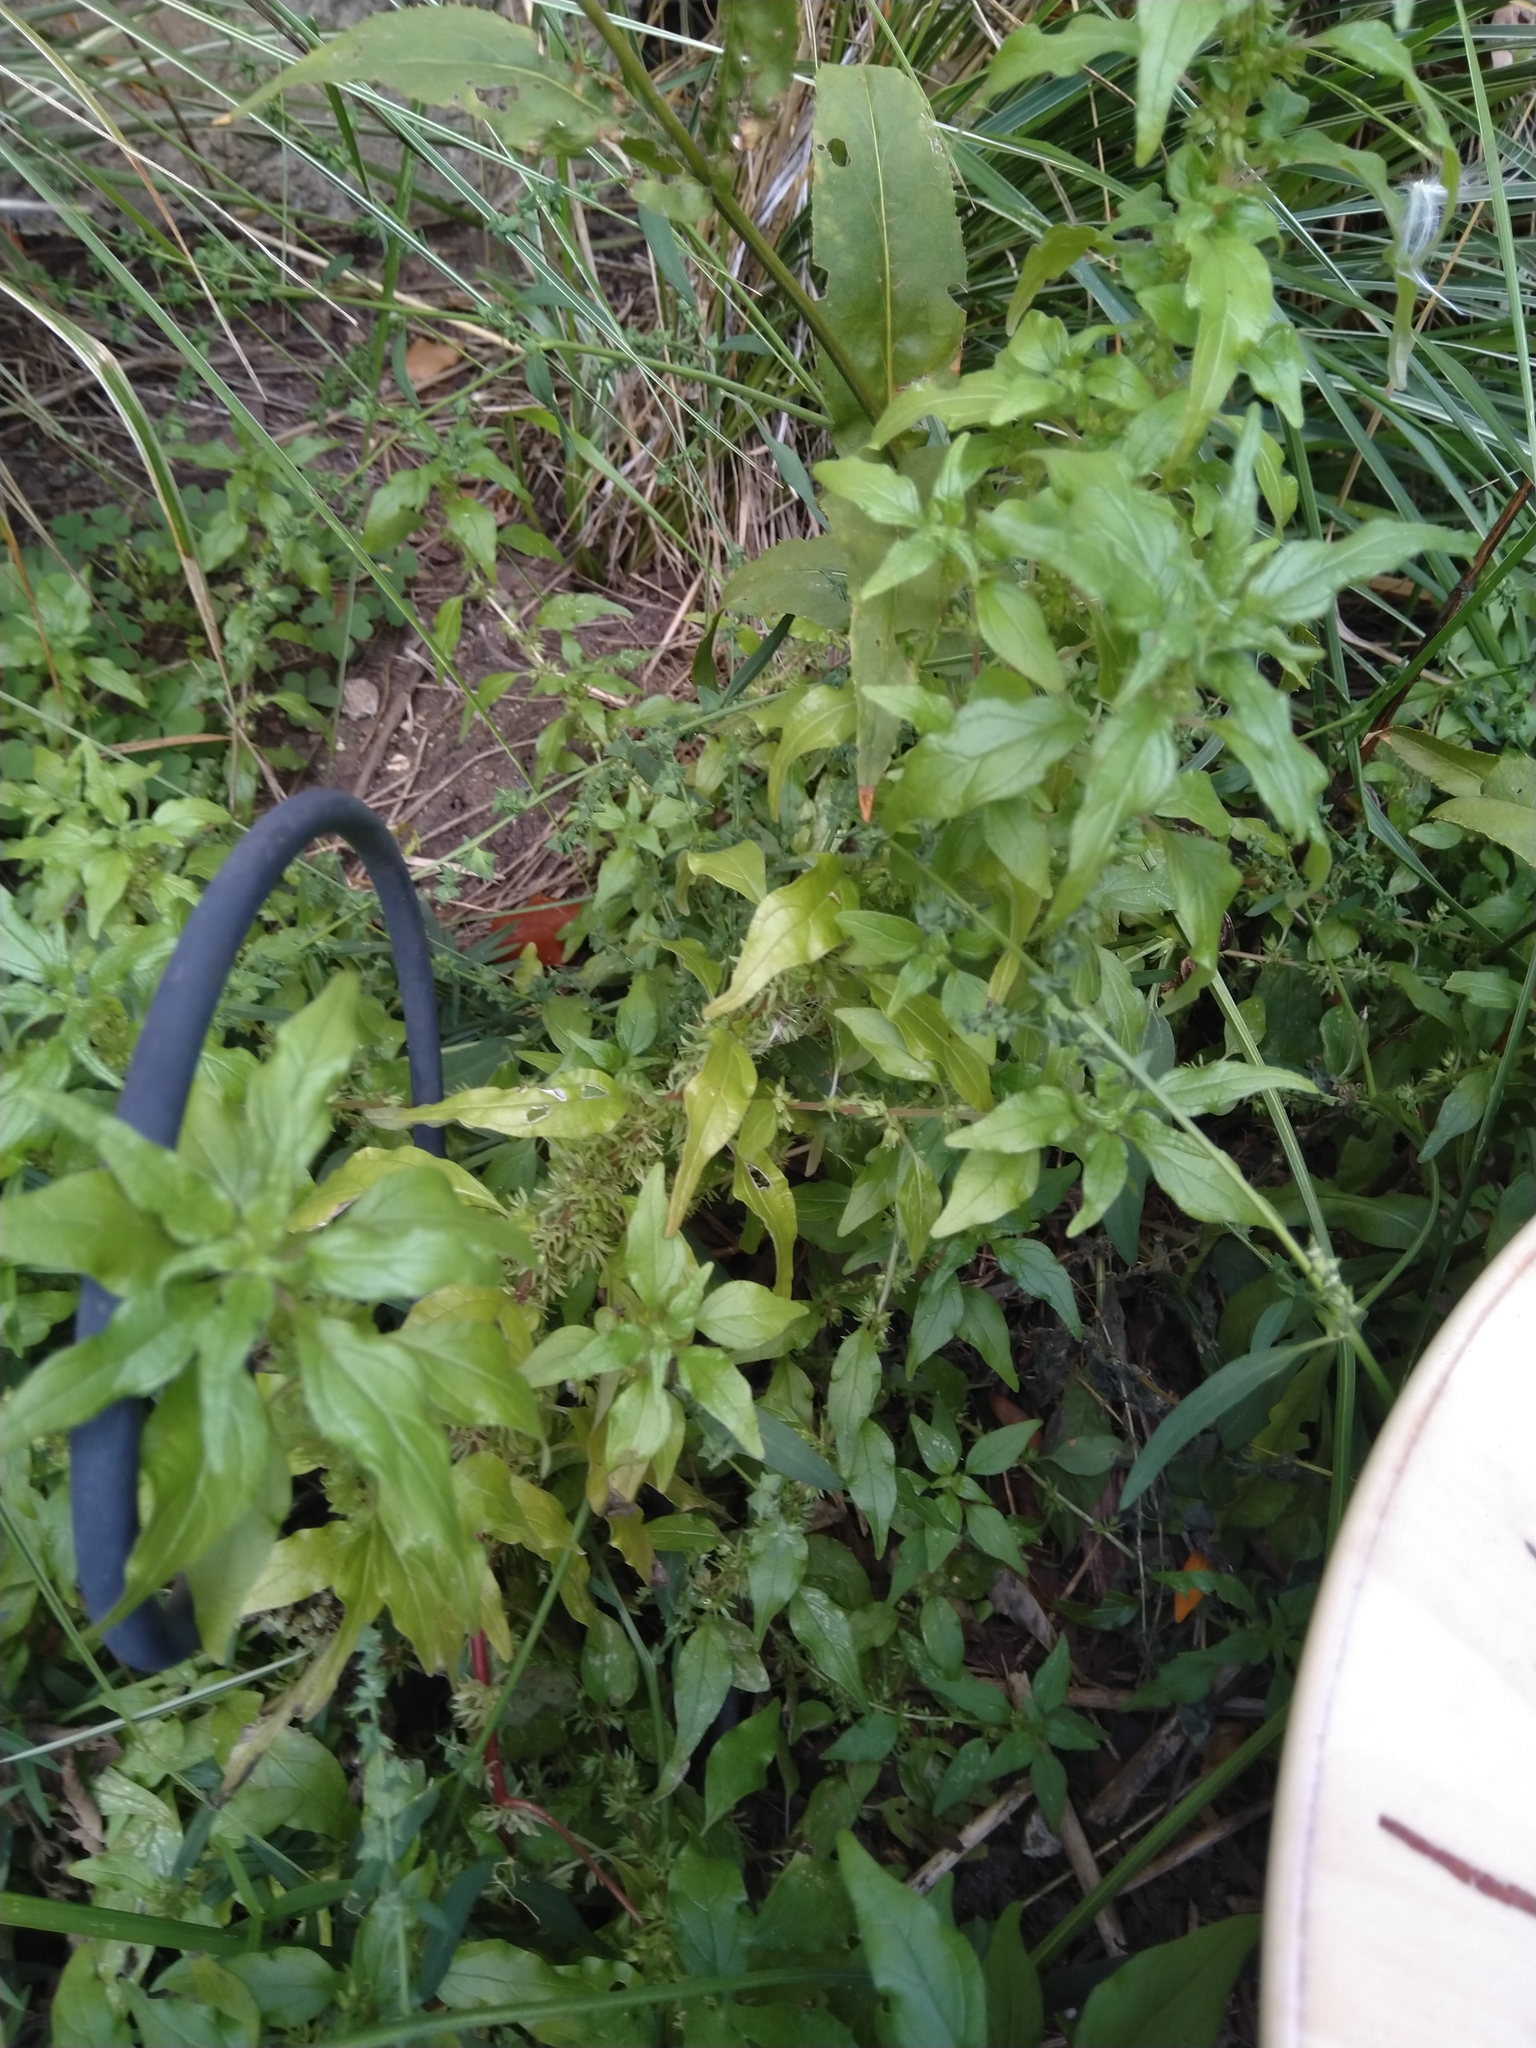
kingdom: Plantae
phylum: Tracheophyta
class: Magnoliopsida
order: Rosales
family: Urticaceae
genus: Parietaria
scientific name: Parietaria pensylvanica
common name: Pennsylvania pellitory
